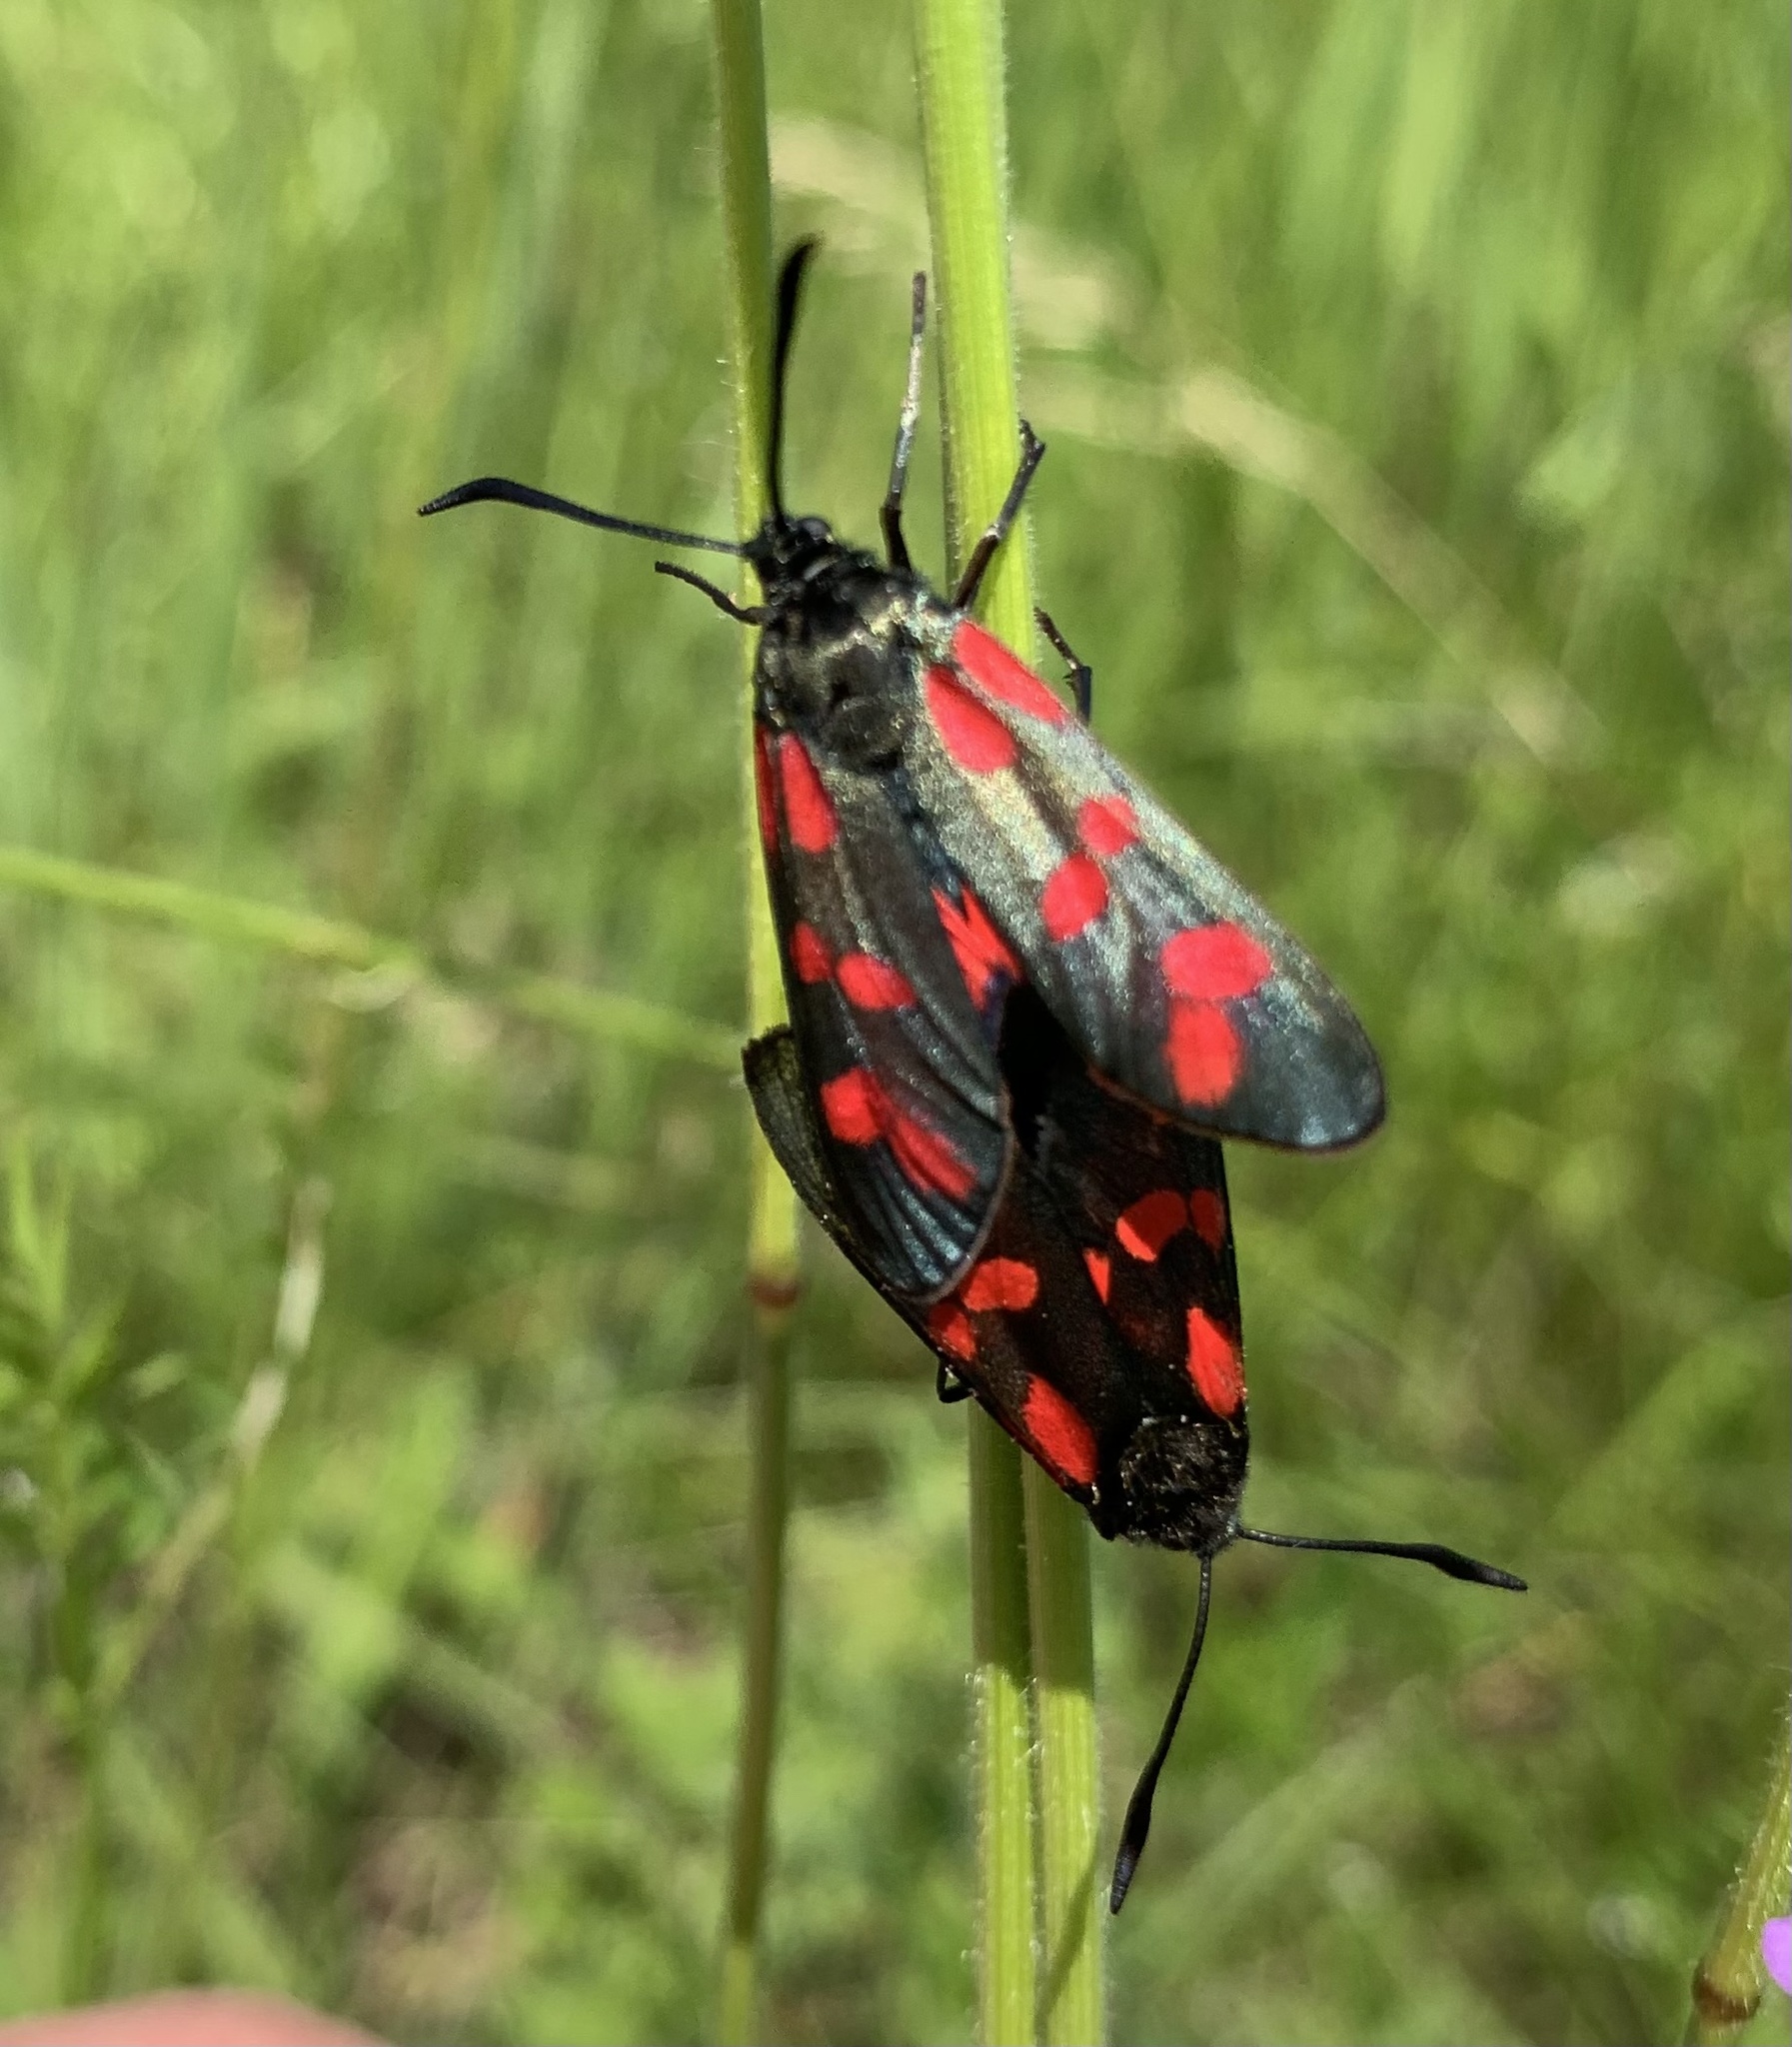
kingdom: Animalia
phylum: Arthropoda
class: Insecta
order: Lepidoptera
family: Zygaenidae
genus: Zygaena
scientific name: Zygaena filipendulae
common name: Six-spot burnet
